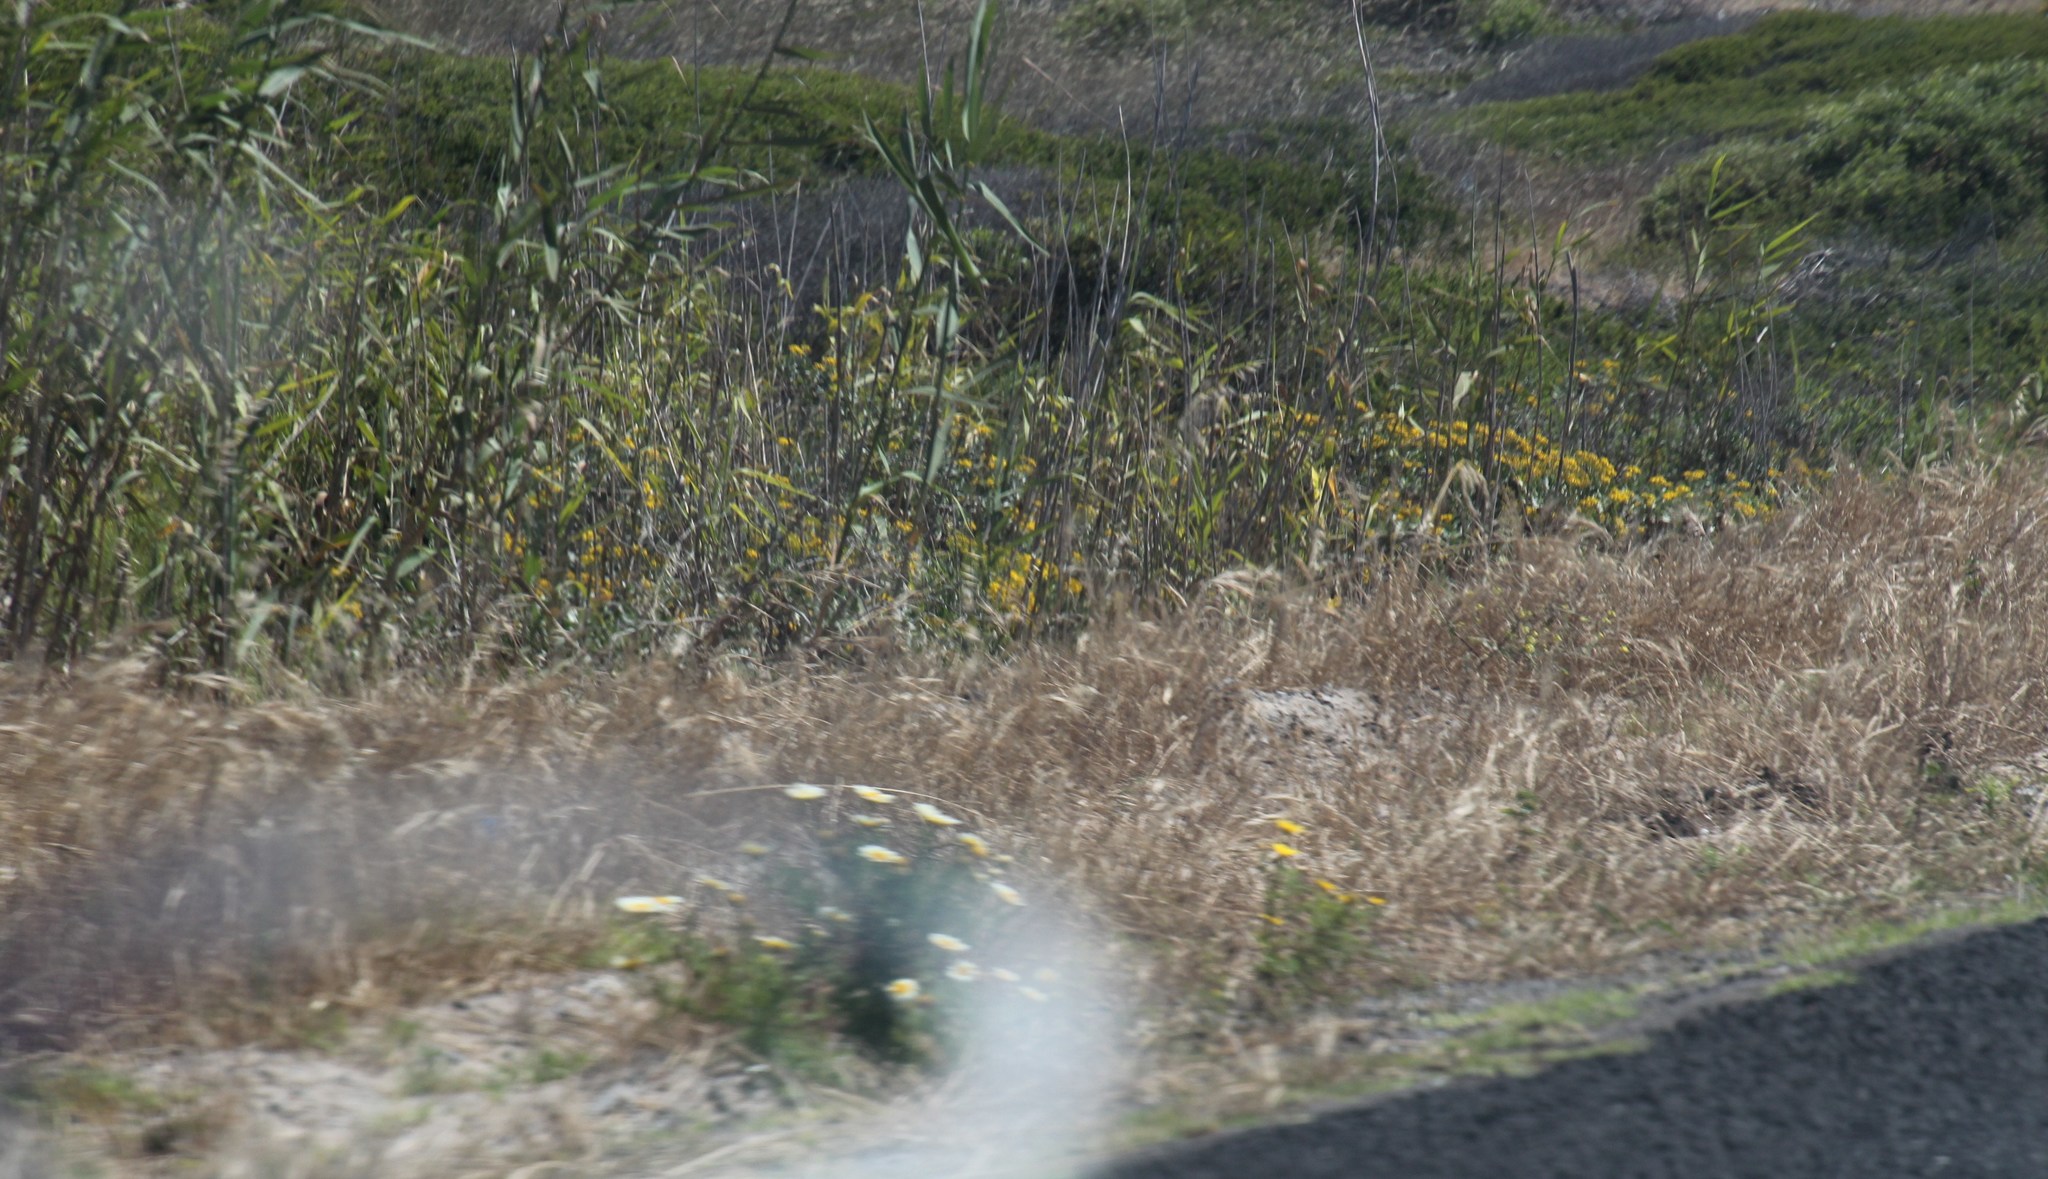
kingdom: Plantae
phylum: Tracheophyta
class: Magnoliopsida
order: Asterales
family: Asteraceae
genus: Glebionis
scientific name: Glebionis coronaria
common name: Crowndaisy
